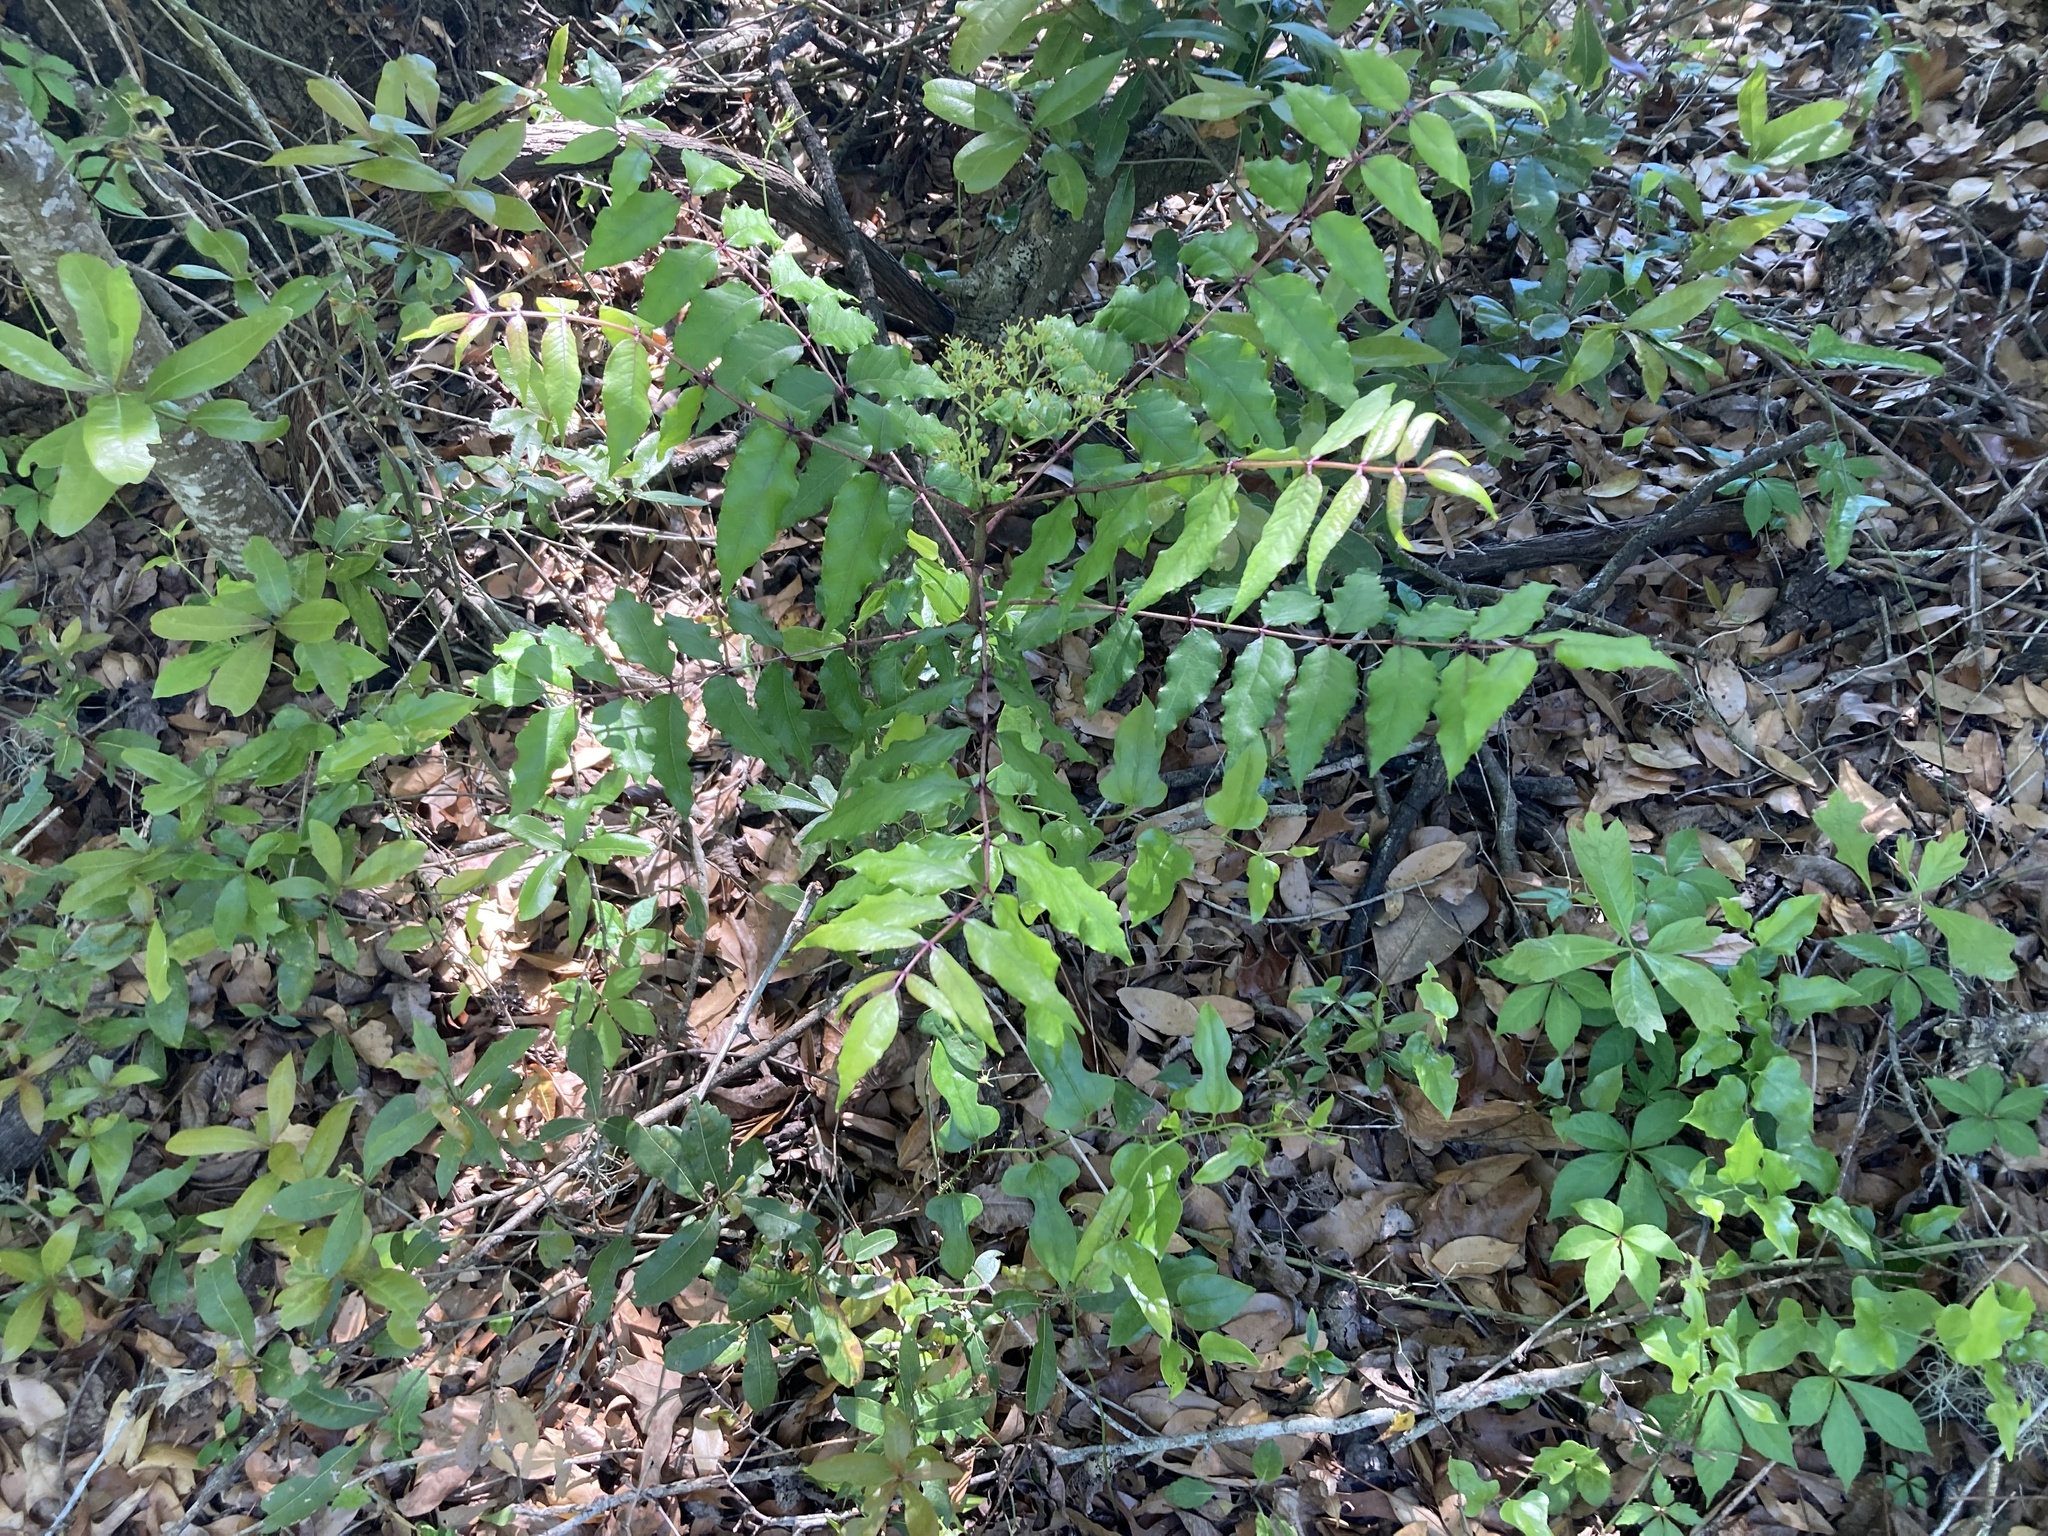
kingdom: Plantae
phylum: Tracheophyta
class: Magnoliopsida
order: Sapindales
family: Rutaceae
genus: Zanthoxylum
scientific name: Zanthoxylum clava-herculis
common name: Hercules'-club
